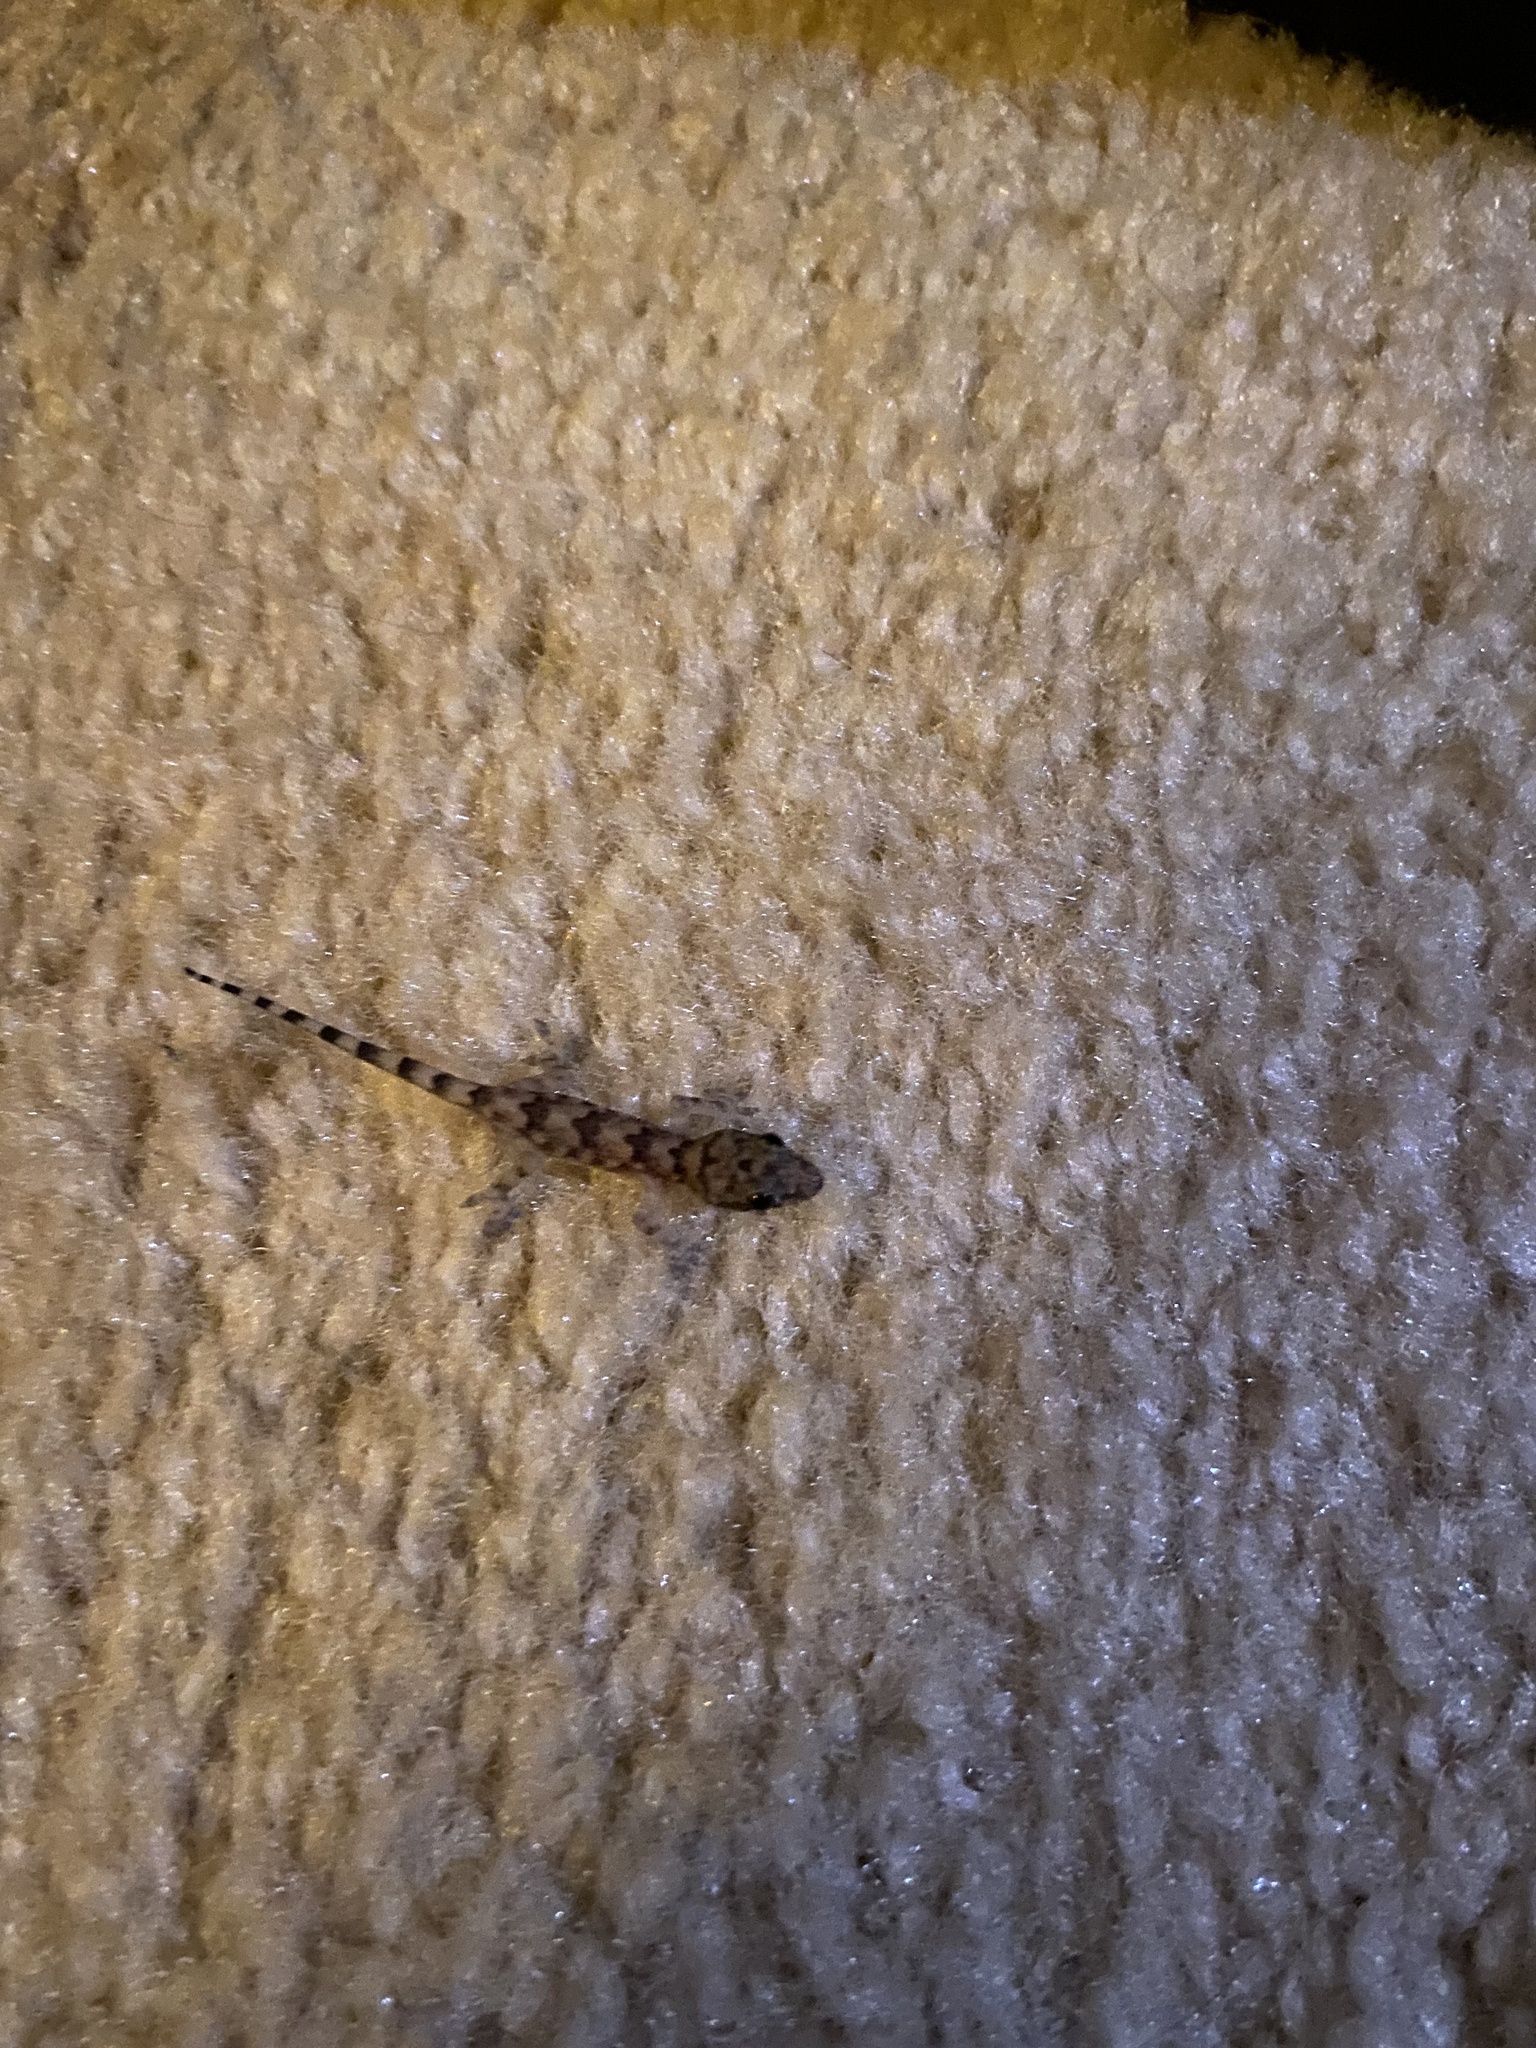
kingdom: Animalia
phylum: Chordata
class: Squamata
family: Gekkonidae
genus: Hemidactylus
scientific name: Hemidactylus mabouia
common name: House gecko
